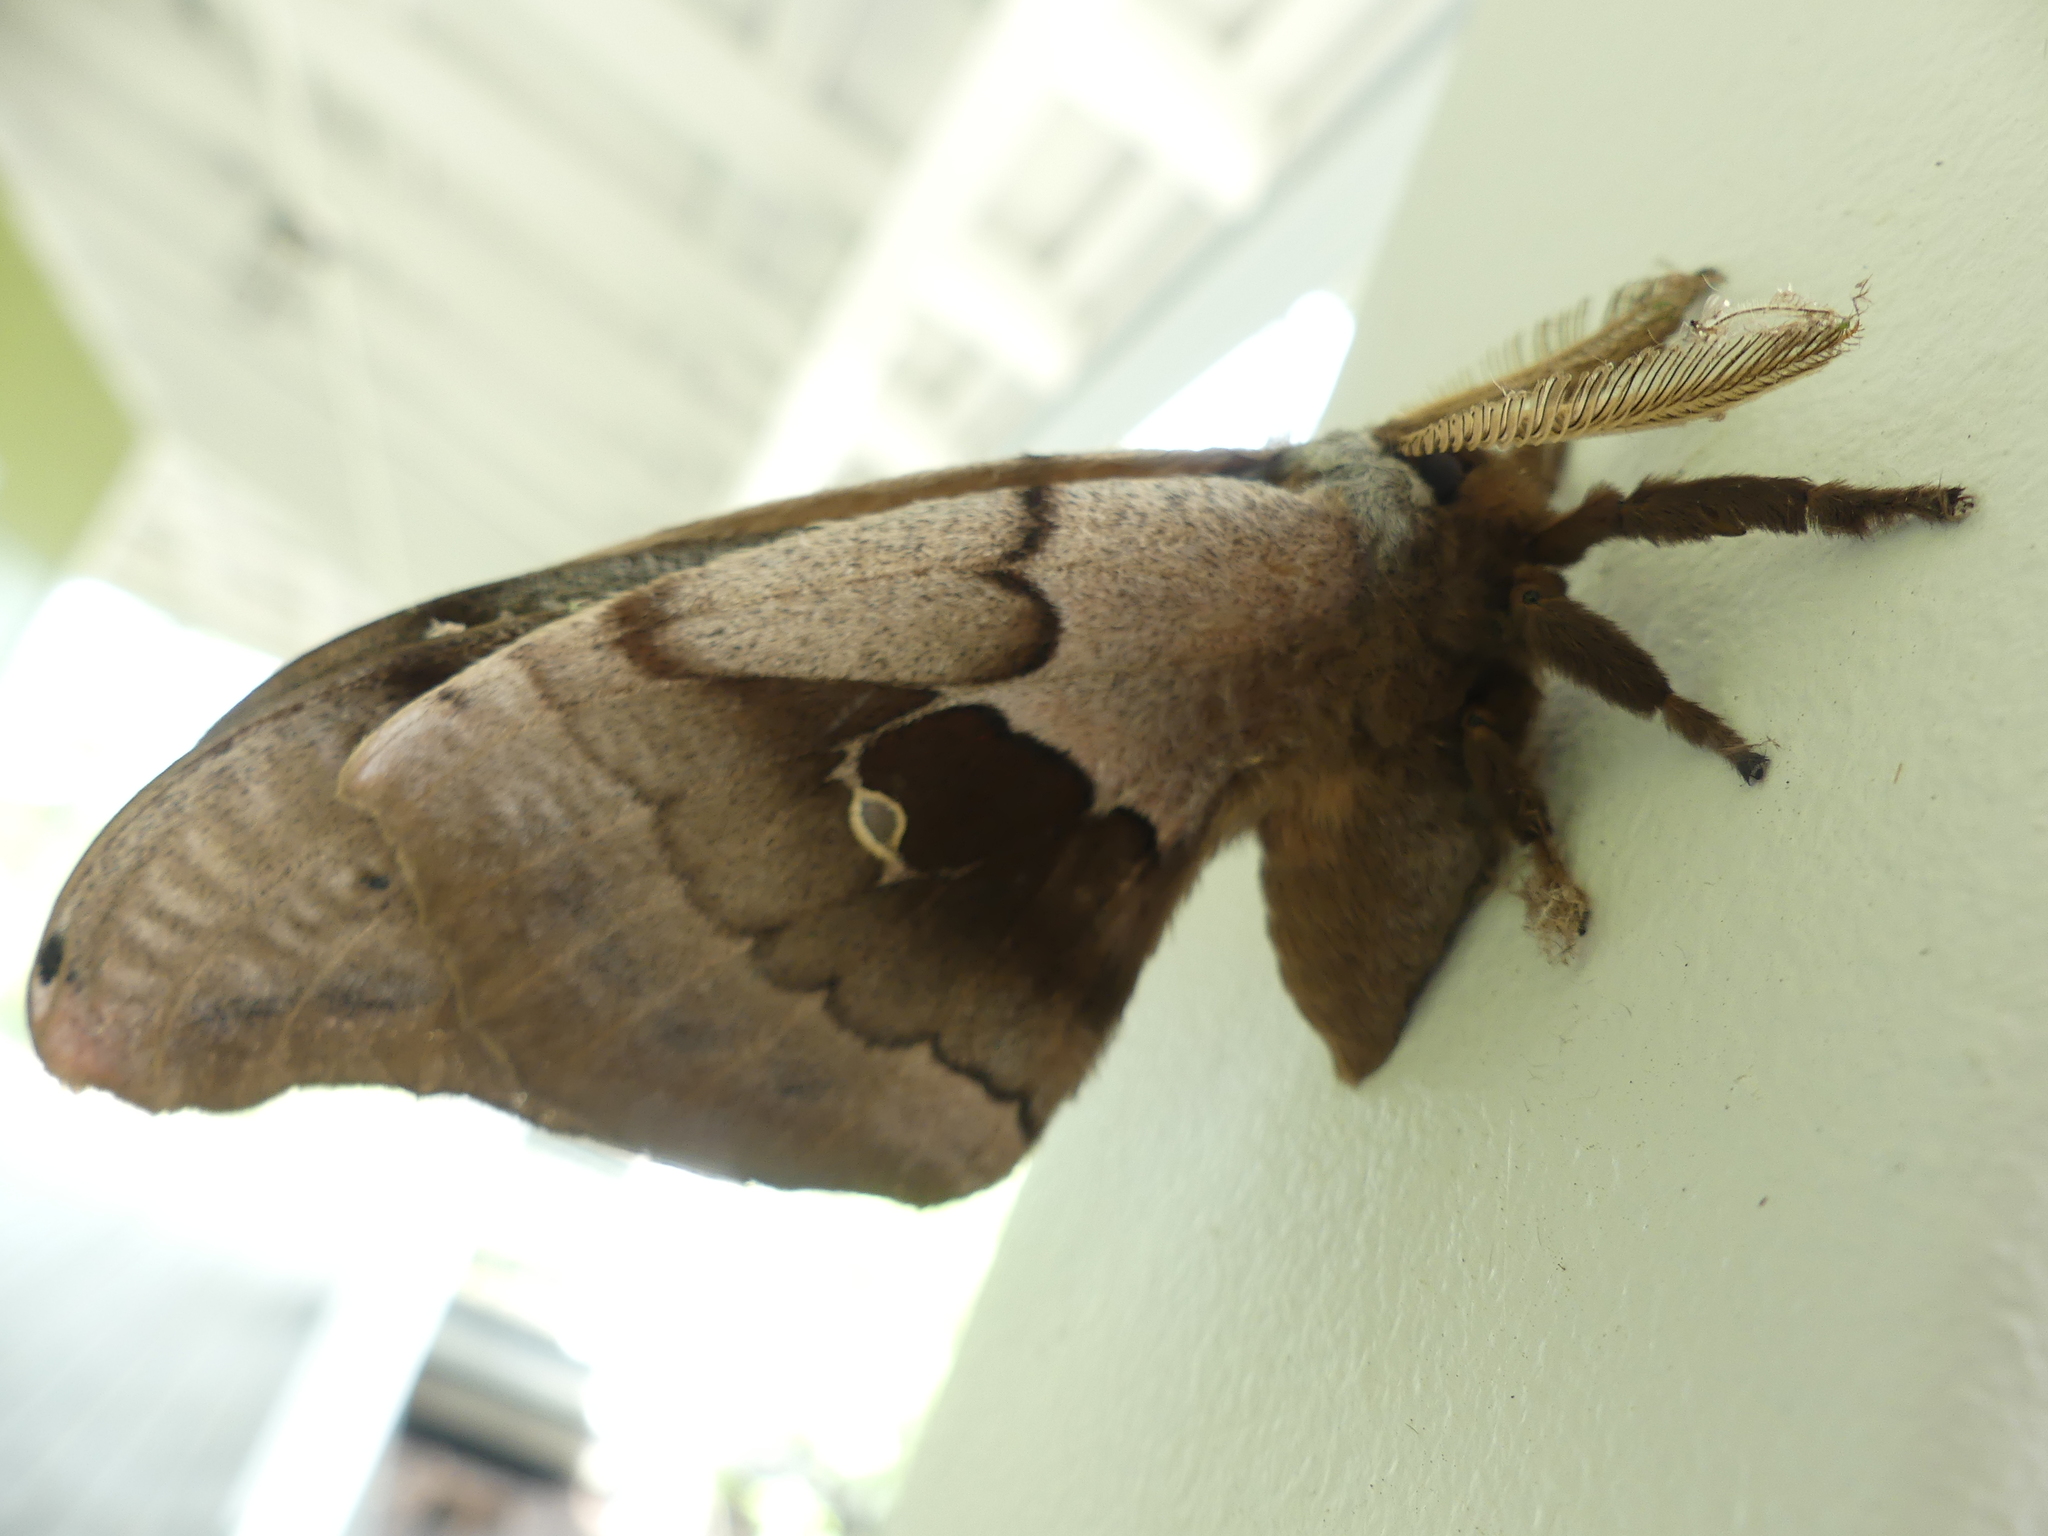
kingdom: Animalia
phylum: Arthropoda
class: Insecta
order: Lepidoptera
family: Saturniidae
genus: Antheraea
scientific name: Antheraea polyphemus
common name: Polyphemus moth
